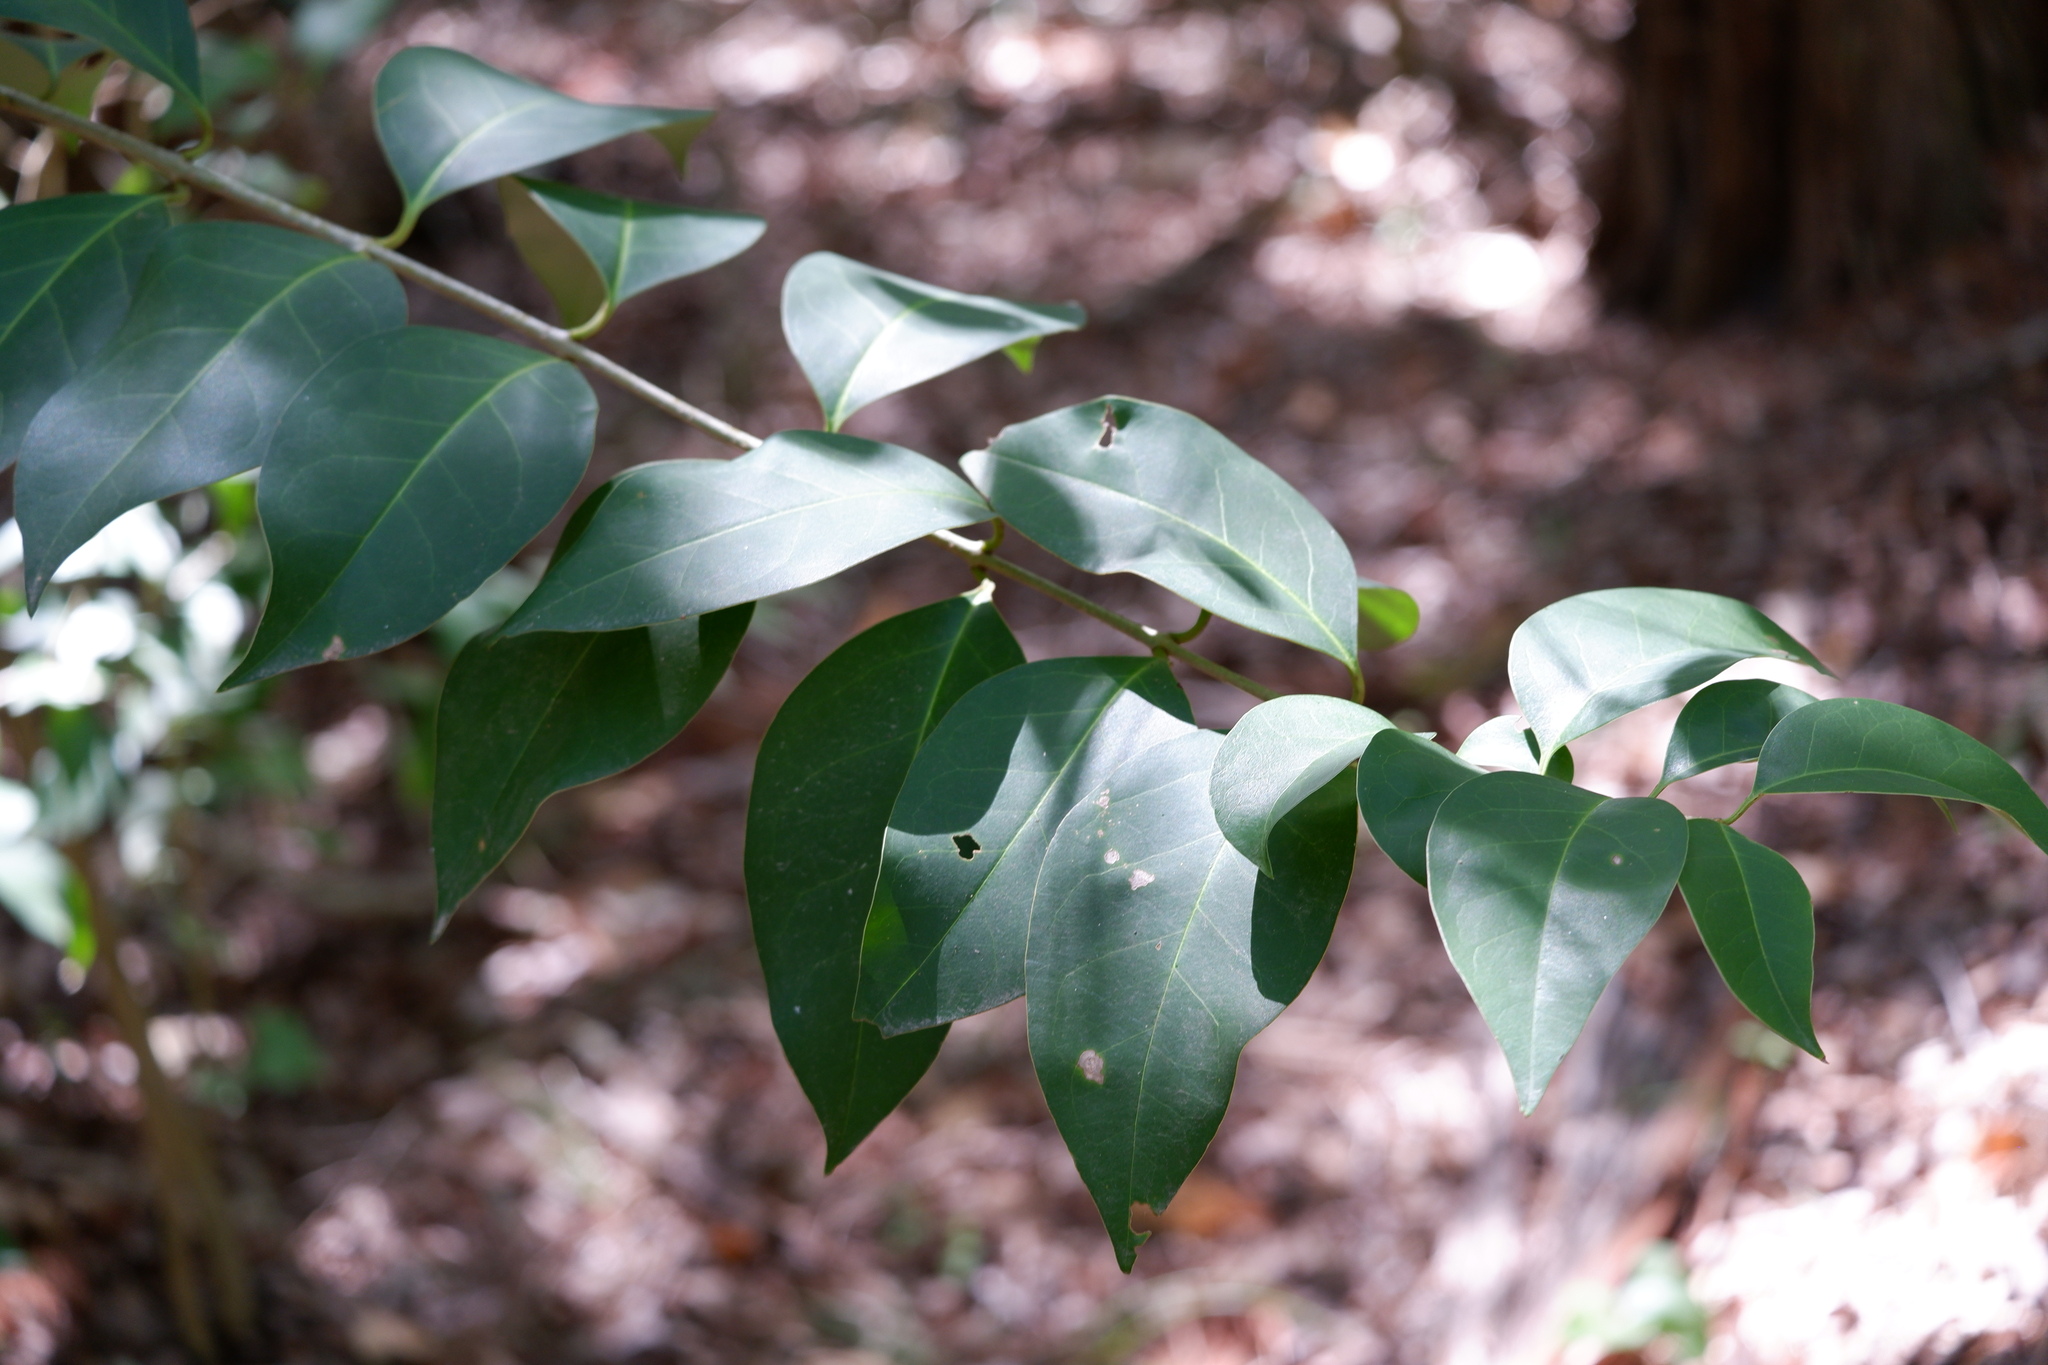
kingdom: Plantae
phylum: Tracheophyta
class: Magnoliopsida
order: Lamiales
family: Oleaceae
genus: Ligustrum
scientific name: Ligustrum lucidum
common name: Glossy privet
